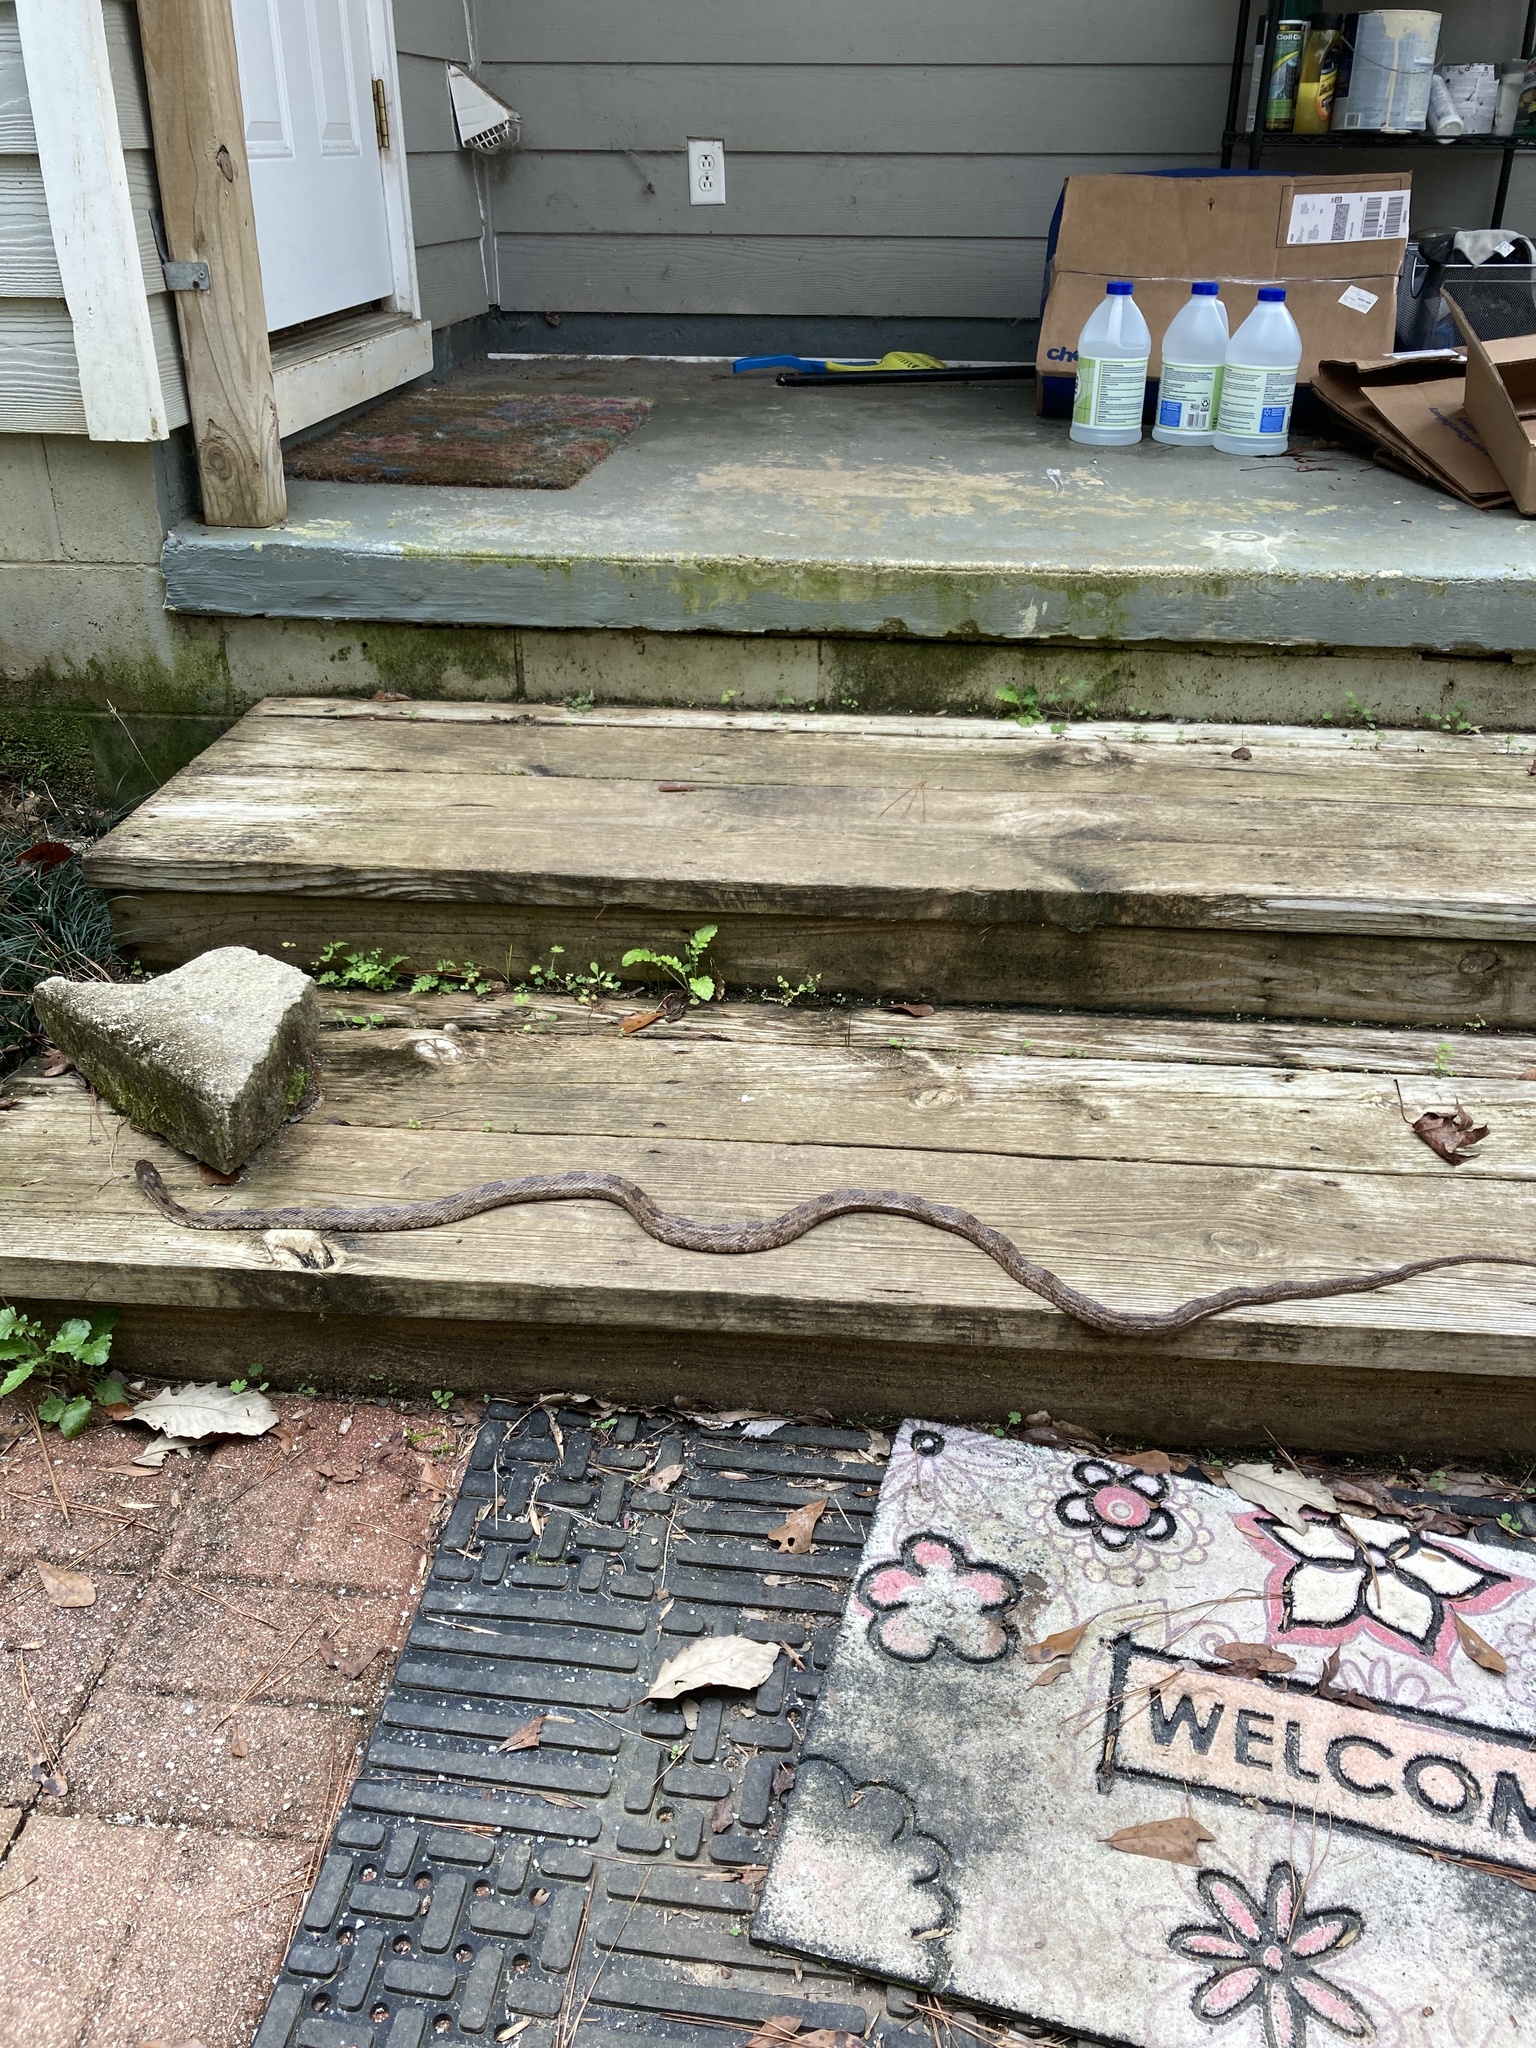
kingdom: Animalia
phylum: Chordata
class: Squamata
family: Colubridae
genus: Pantherophis
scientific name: Pantherophis
